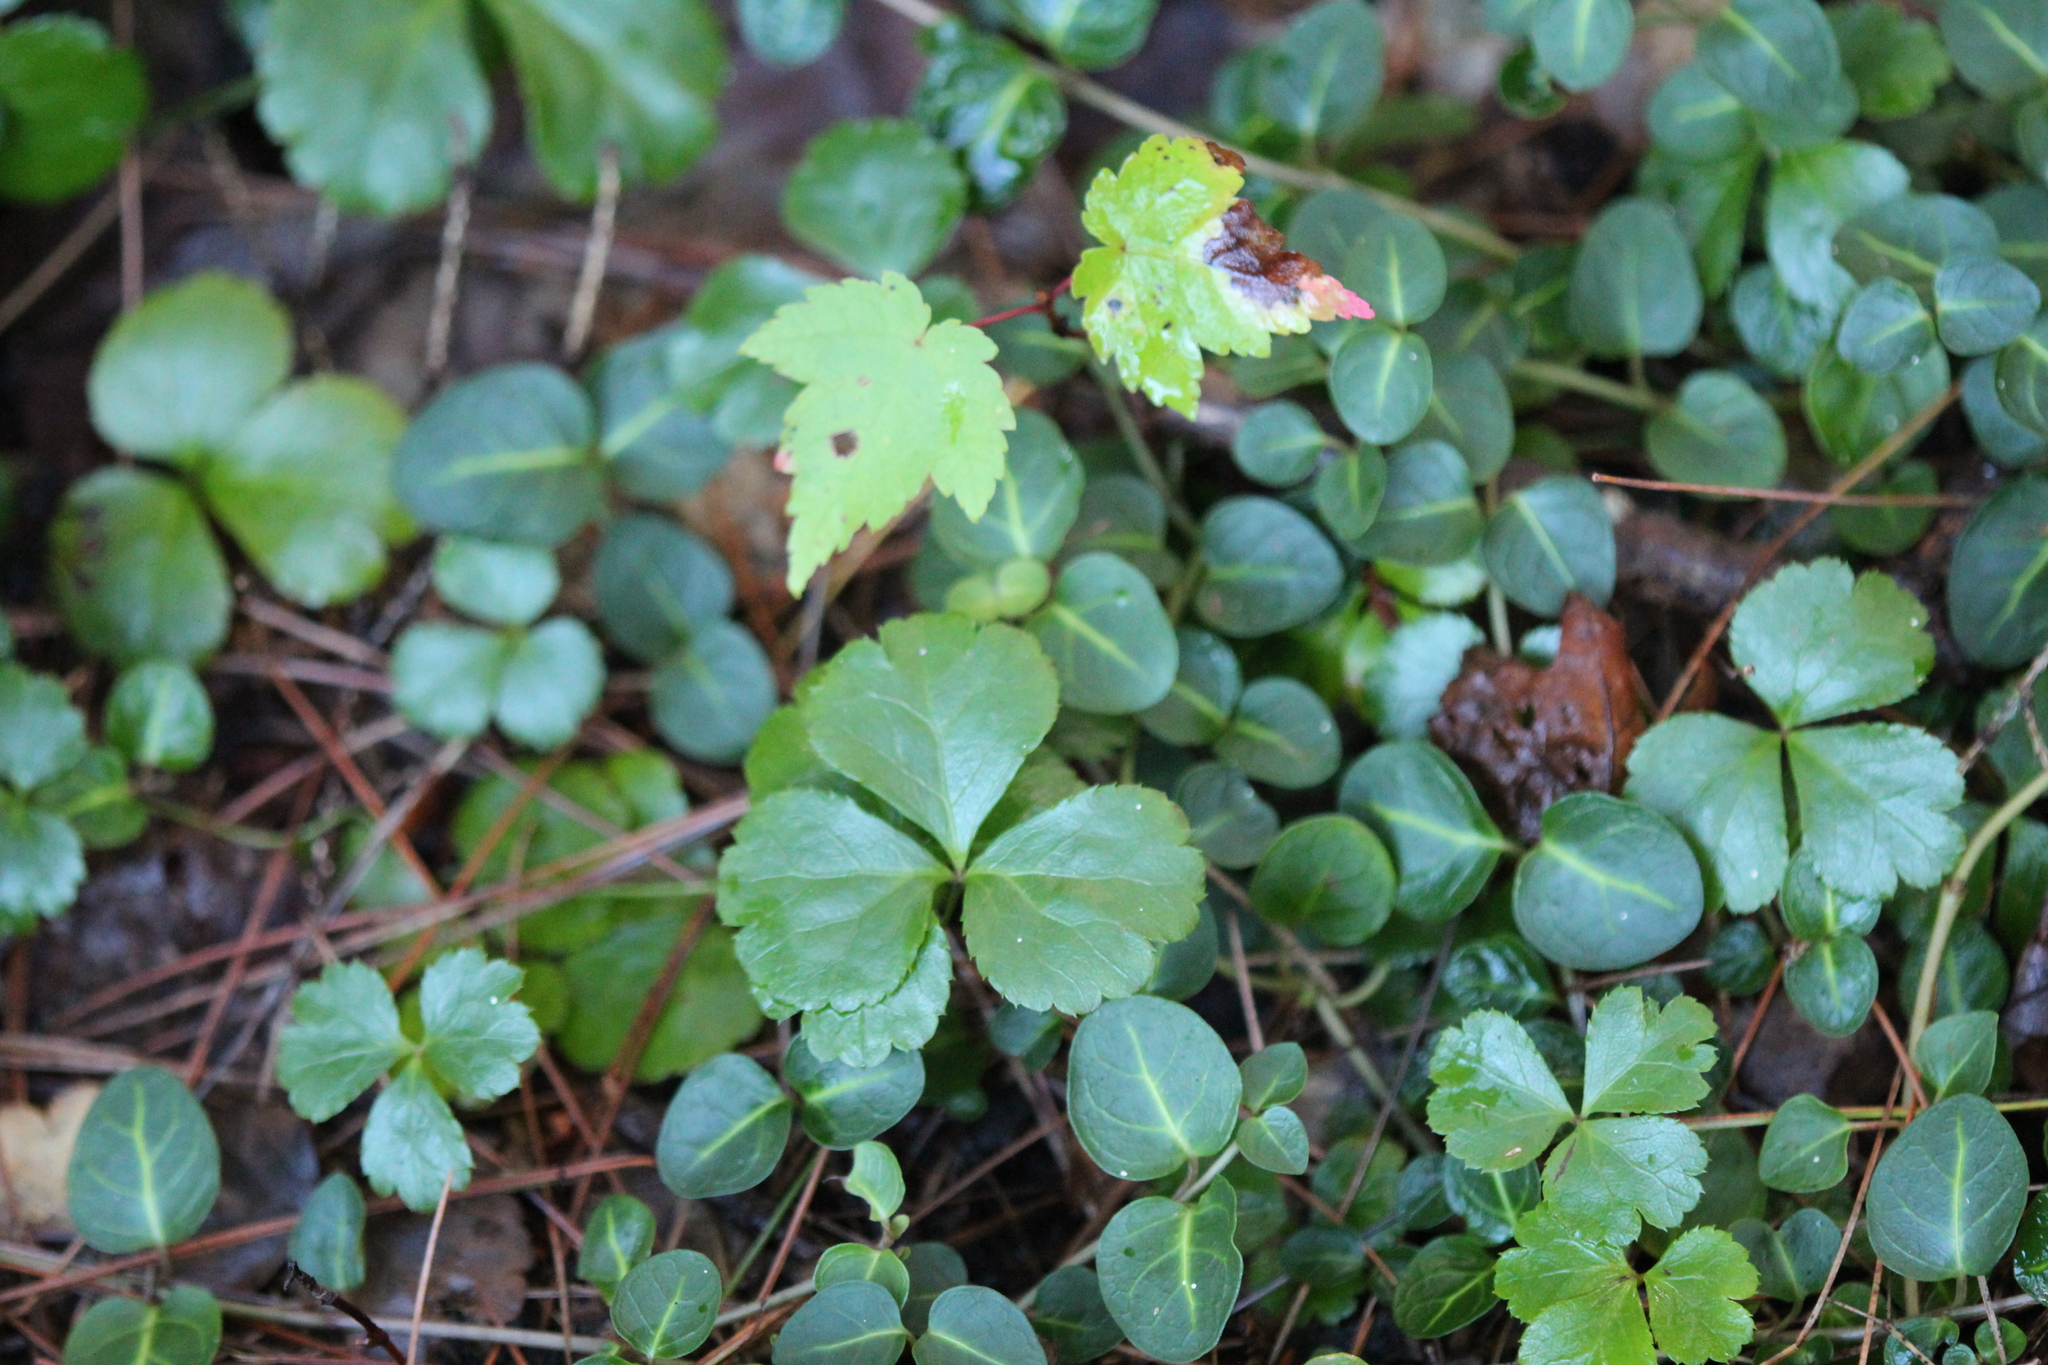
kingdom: Plantae
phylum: Tracheophyta
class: Magnoliopsida
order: Ranunculales
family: Ranunculaceae
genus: Coptis
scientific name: Coptis trifolia
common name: Canker-root
